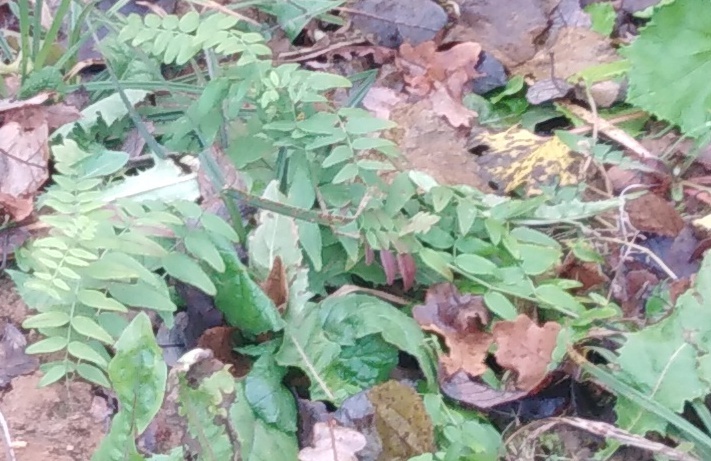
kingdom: Plantae
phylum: Tracheophyta
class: Magnoliopsida
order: Fabales
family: Fabaceae
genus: Vicia
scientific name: Vicia sepium
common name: Bush vetch
